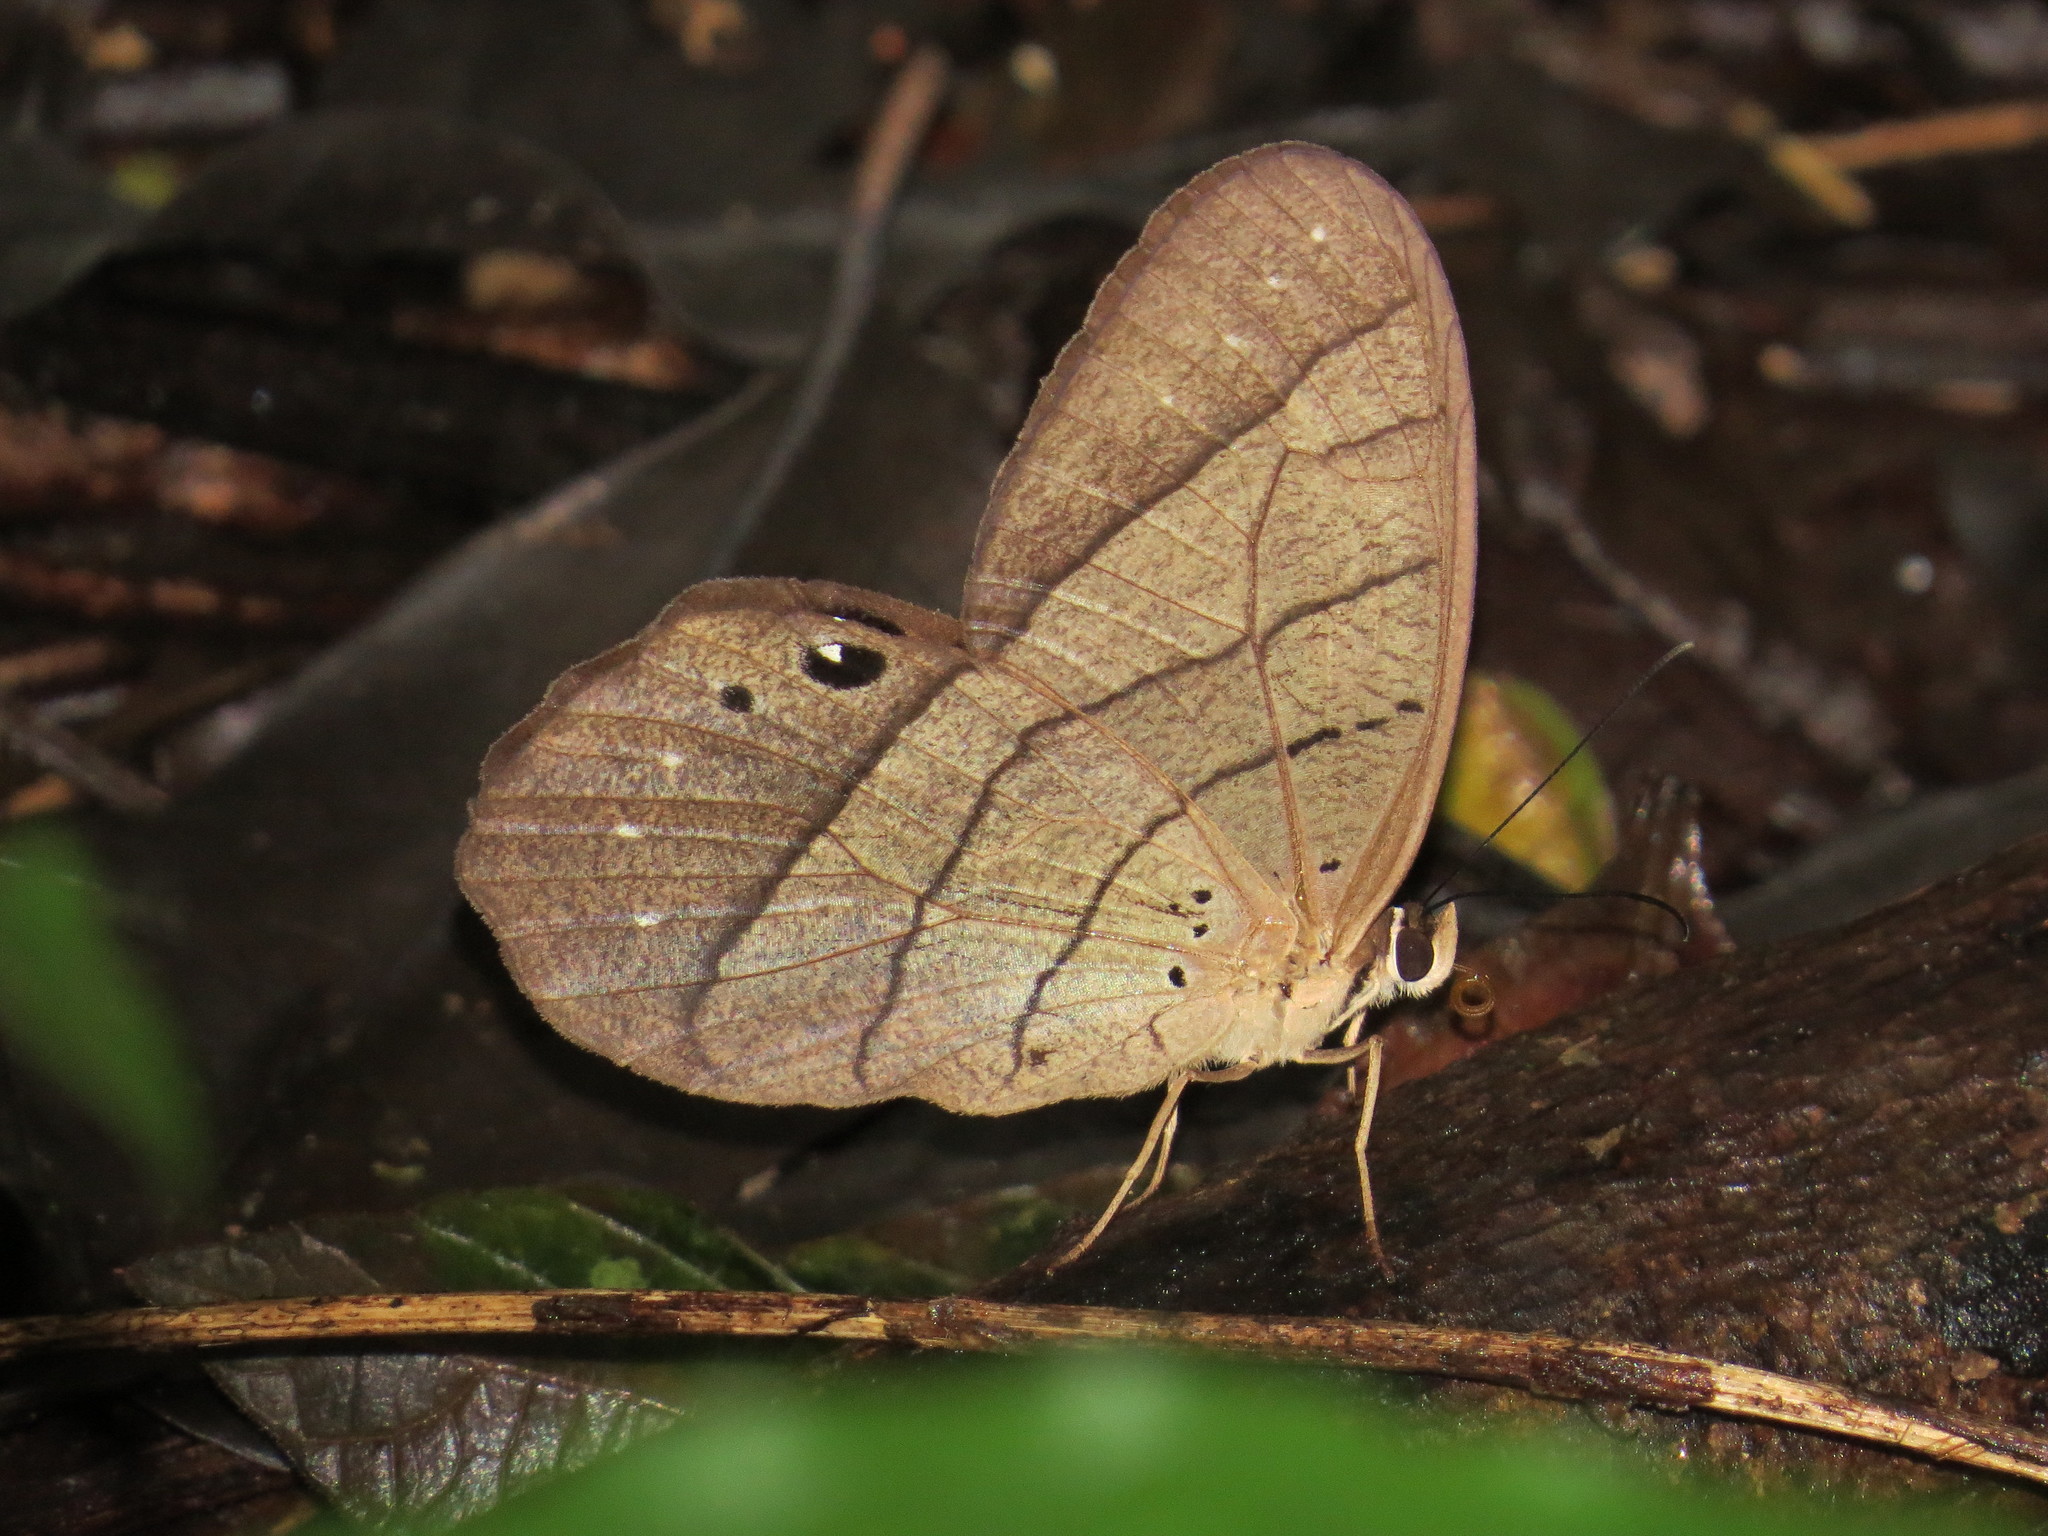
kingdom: Animalia
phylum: Arthropoda
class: Insecta
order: Lepidoptera
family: Nymphalidae
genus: Pierella
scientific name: Pierella luna
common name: Moon satyr
